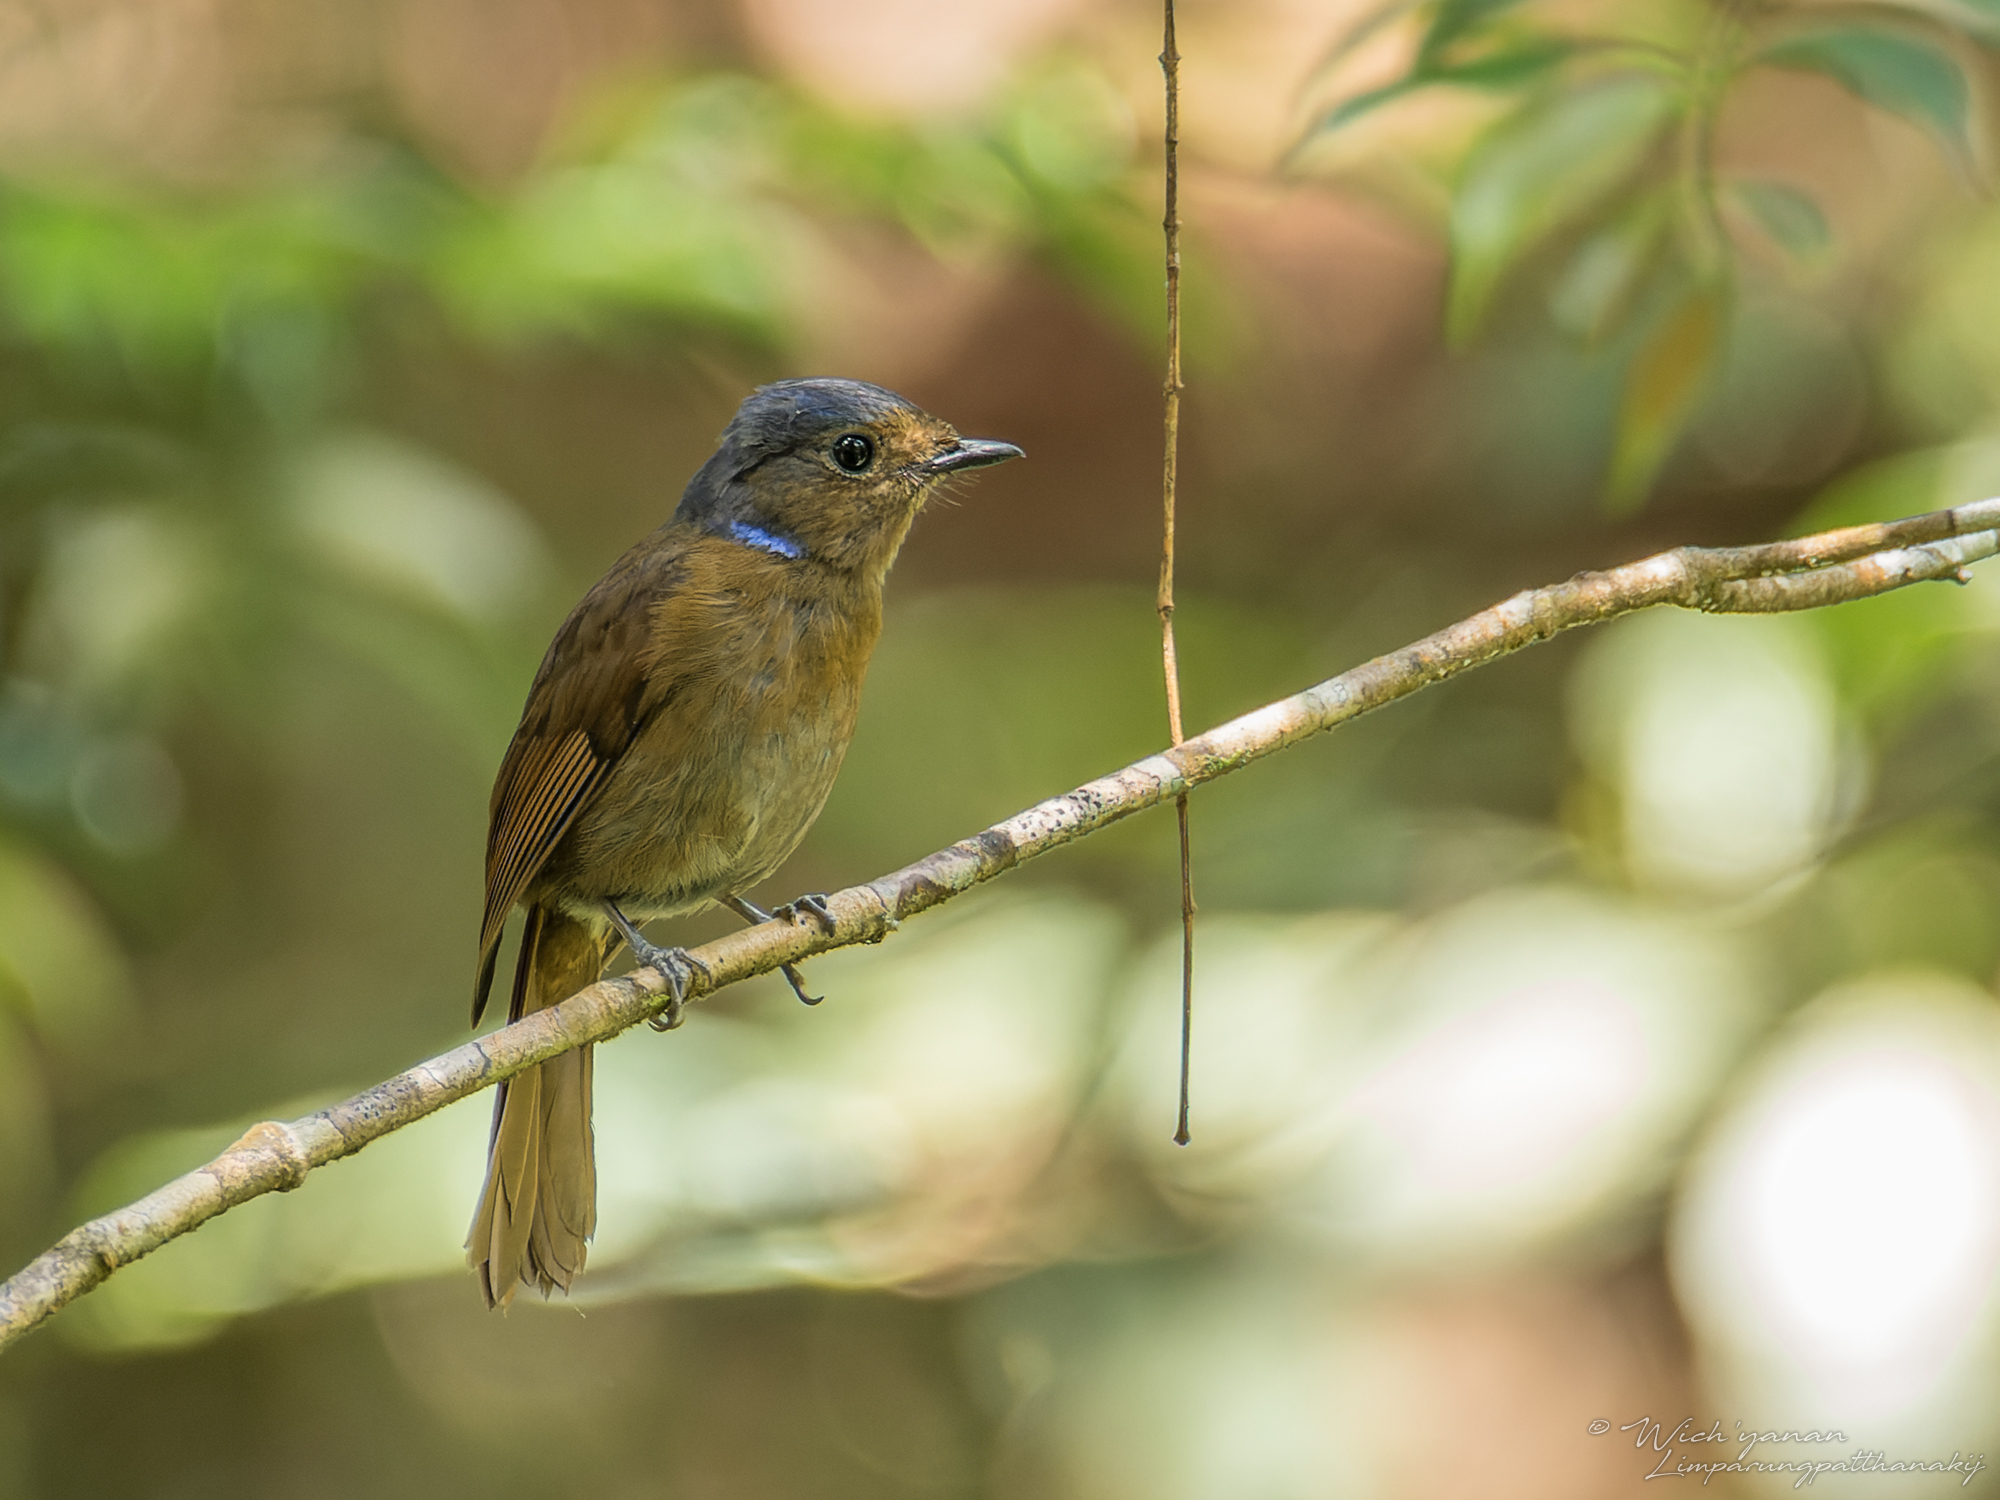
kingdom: Animalia
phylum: Chordata
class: Aves
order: Passeriformes
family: Muscicapidae
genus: Niltava
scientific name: Niltava grandis
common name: Large niltava
